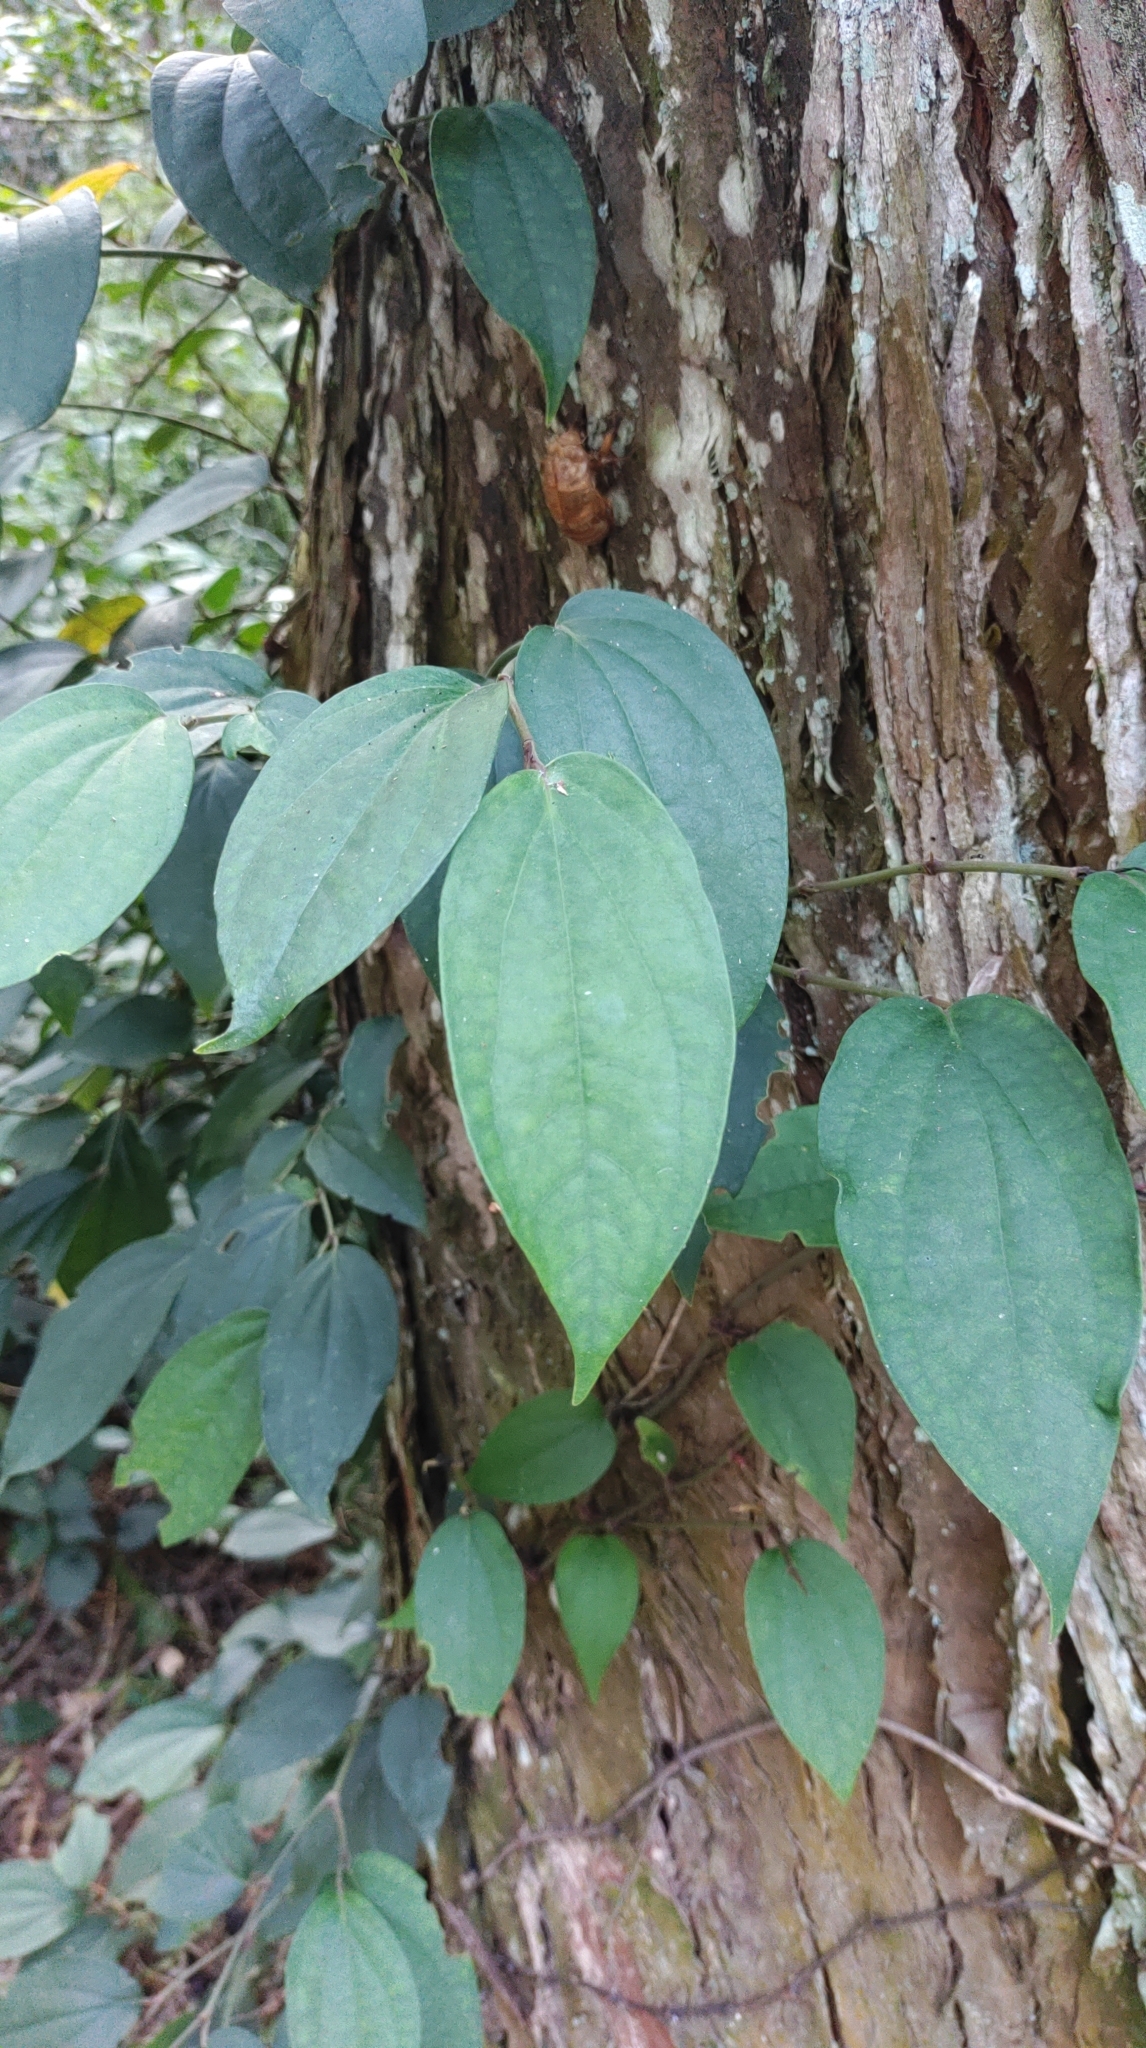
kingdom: Plantae
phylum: Tracheophyta
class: Magnoliopsida
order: Piperales
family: Piperaceae
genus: Piper
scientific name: Piper kadsura
